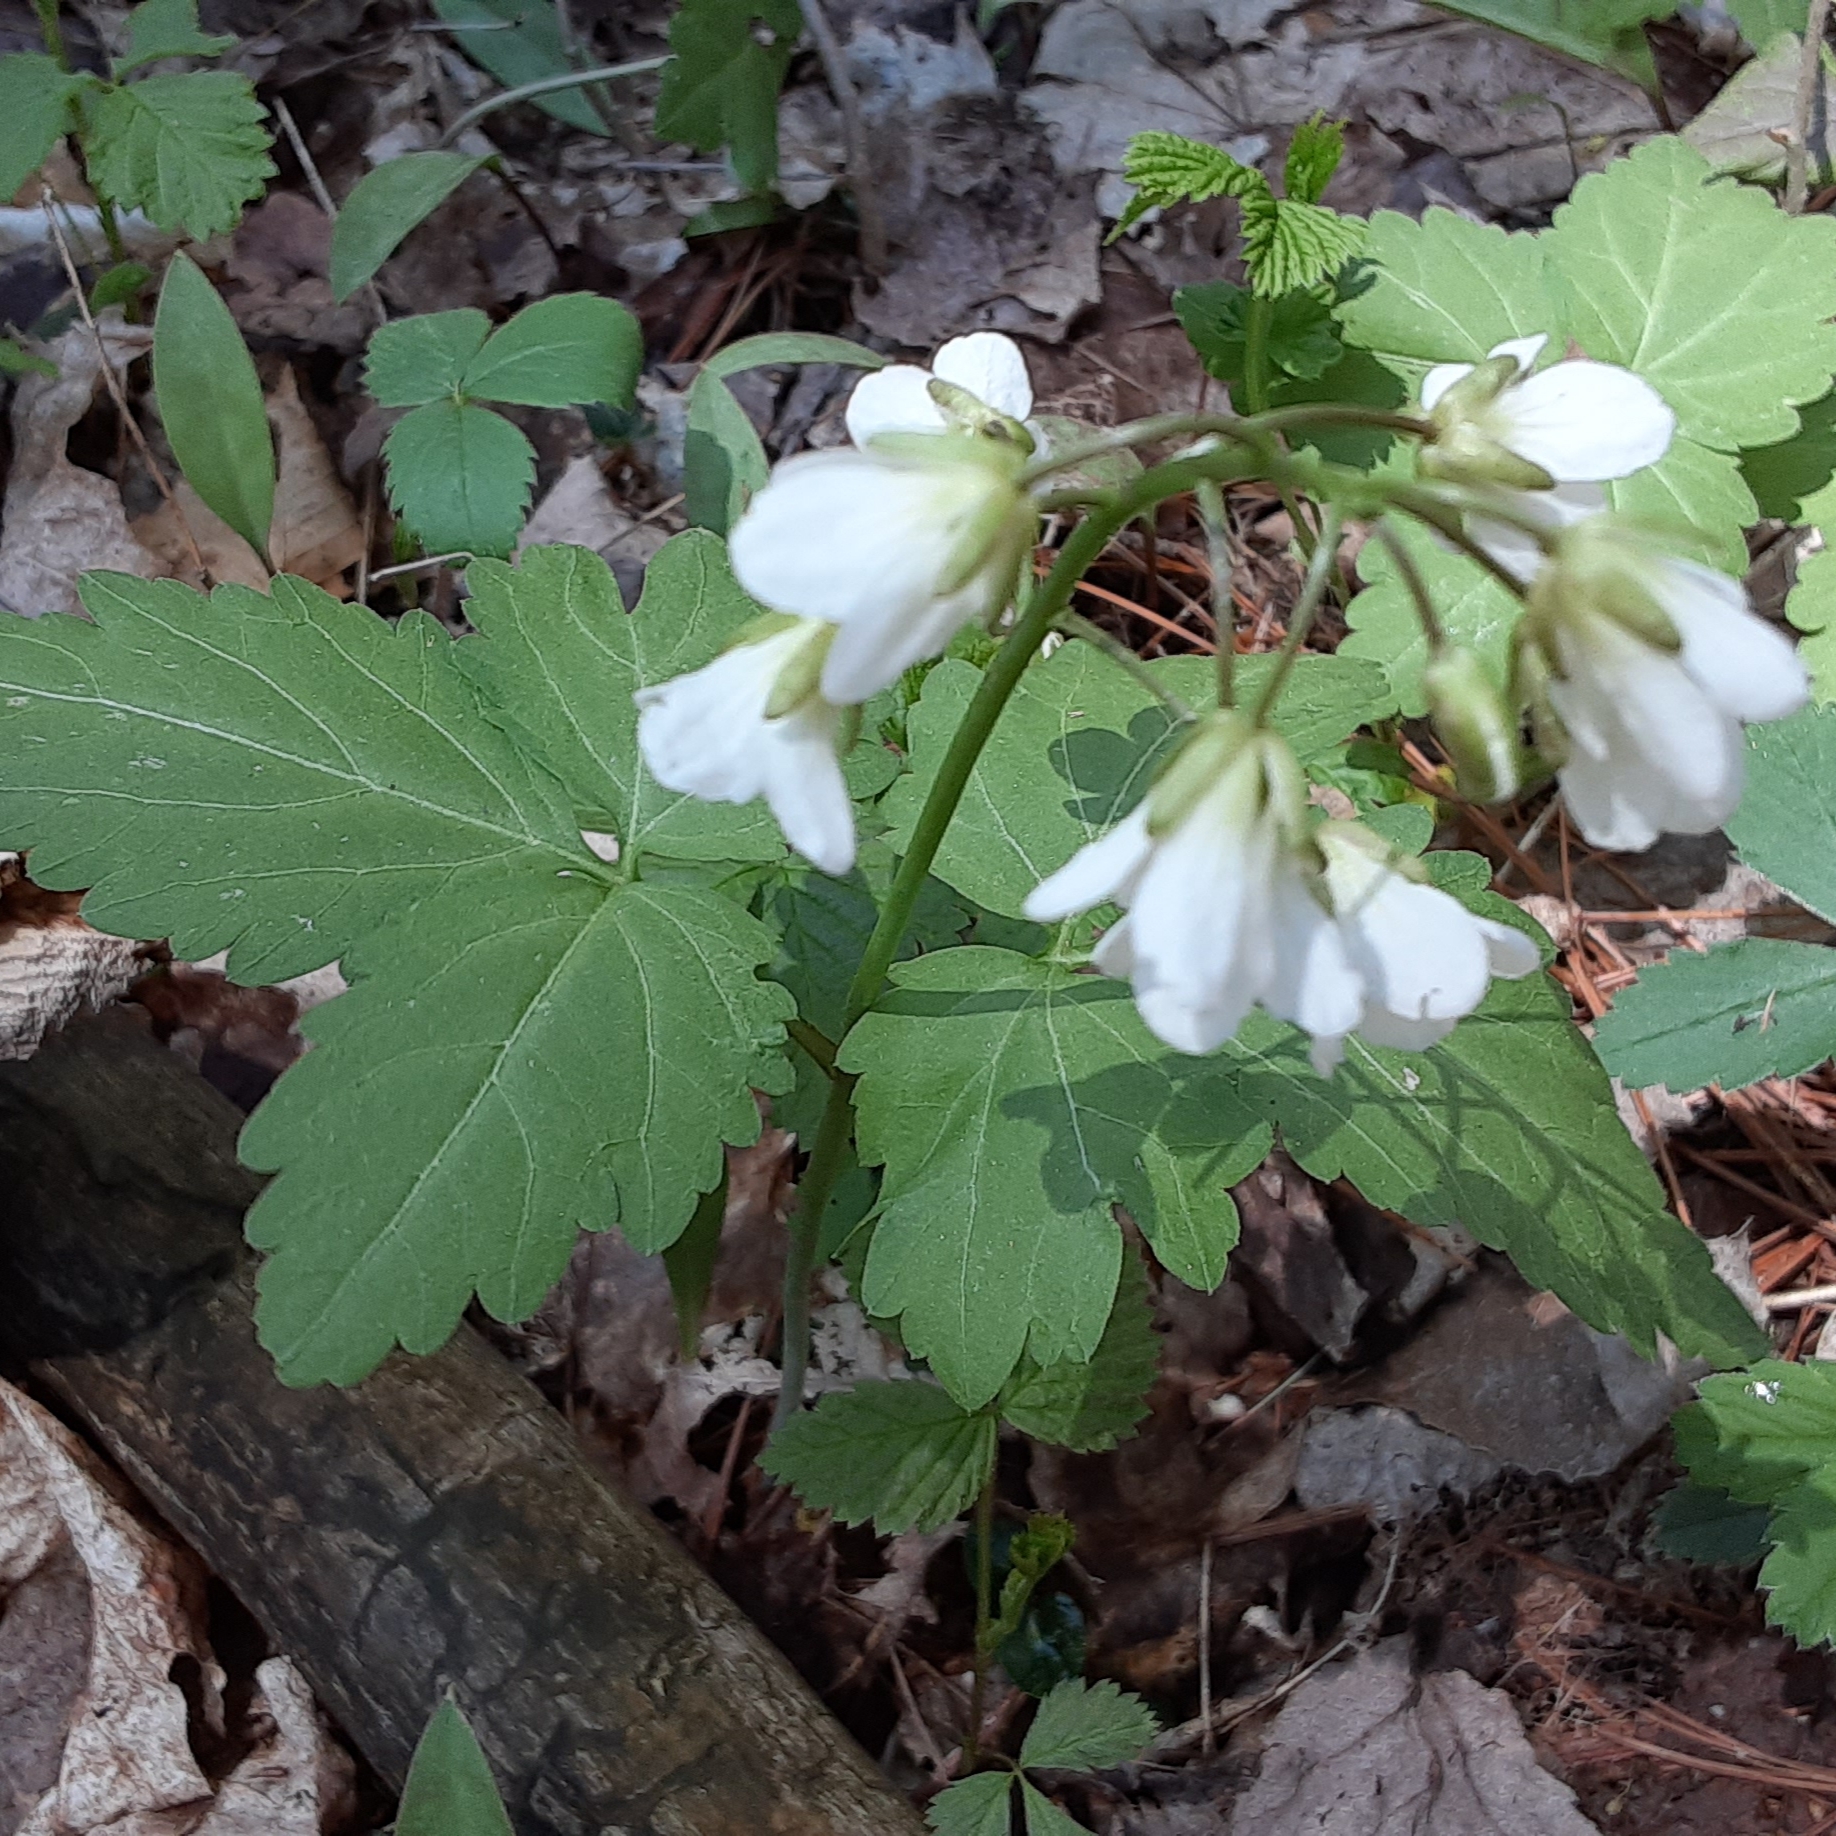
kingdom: Plantae
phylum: Tracheophyta
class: Magnoliopsida
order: Brassicales
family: Brassicaceae
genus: Cardamine
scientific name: Cardamine diphylla
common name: Broad-leaved toothwort
